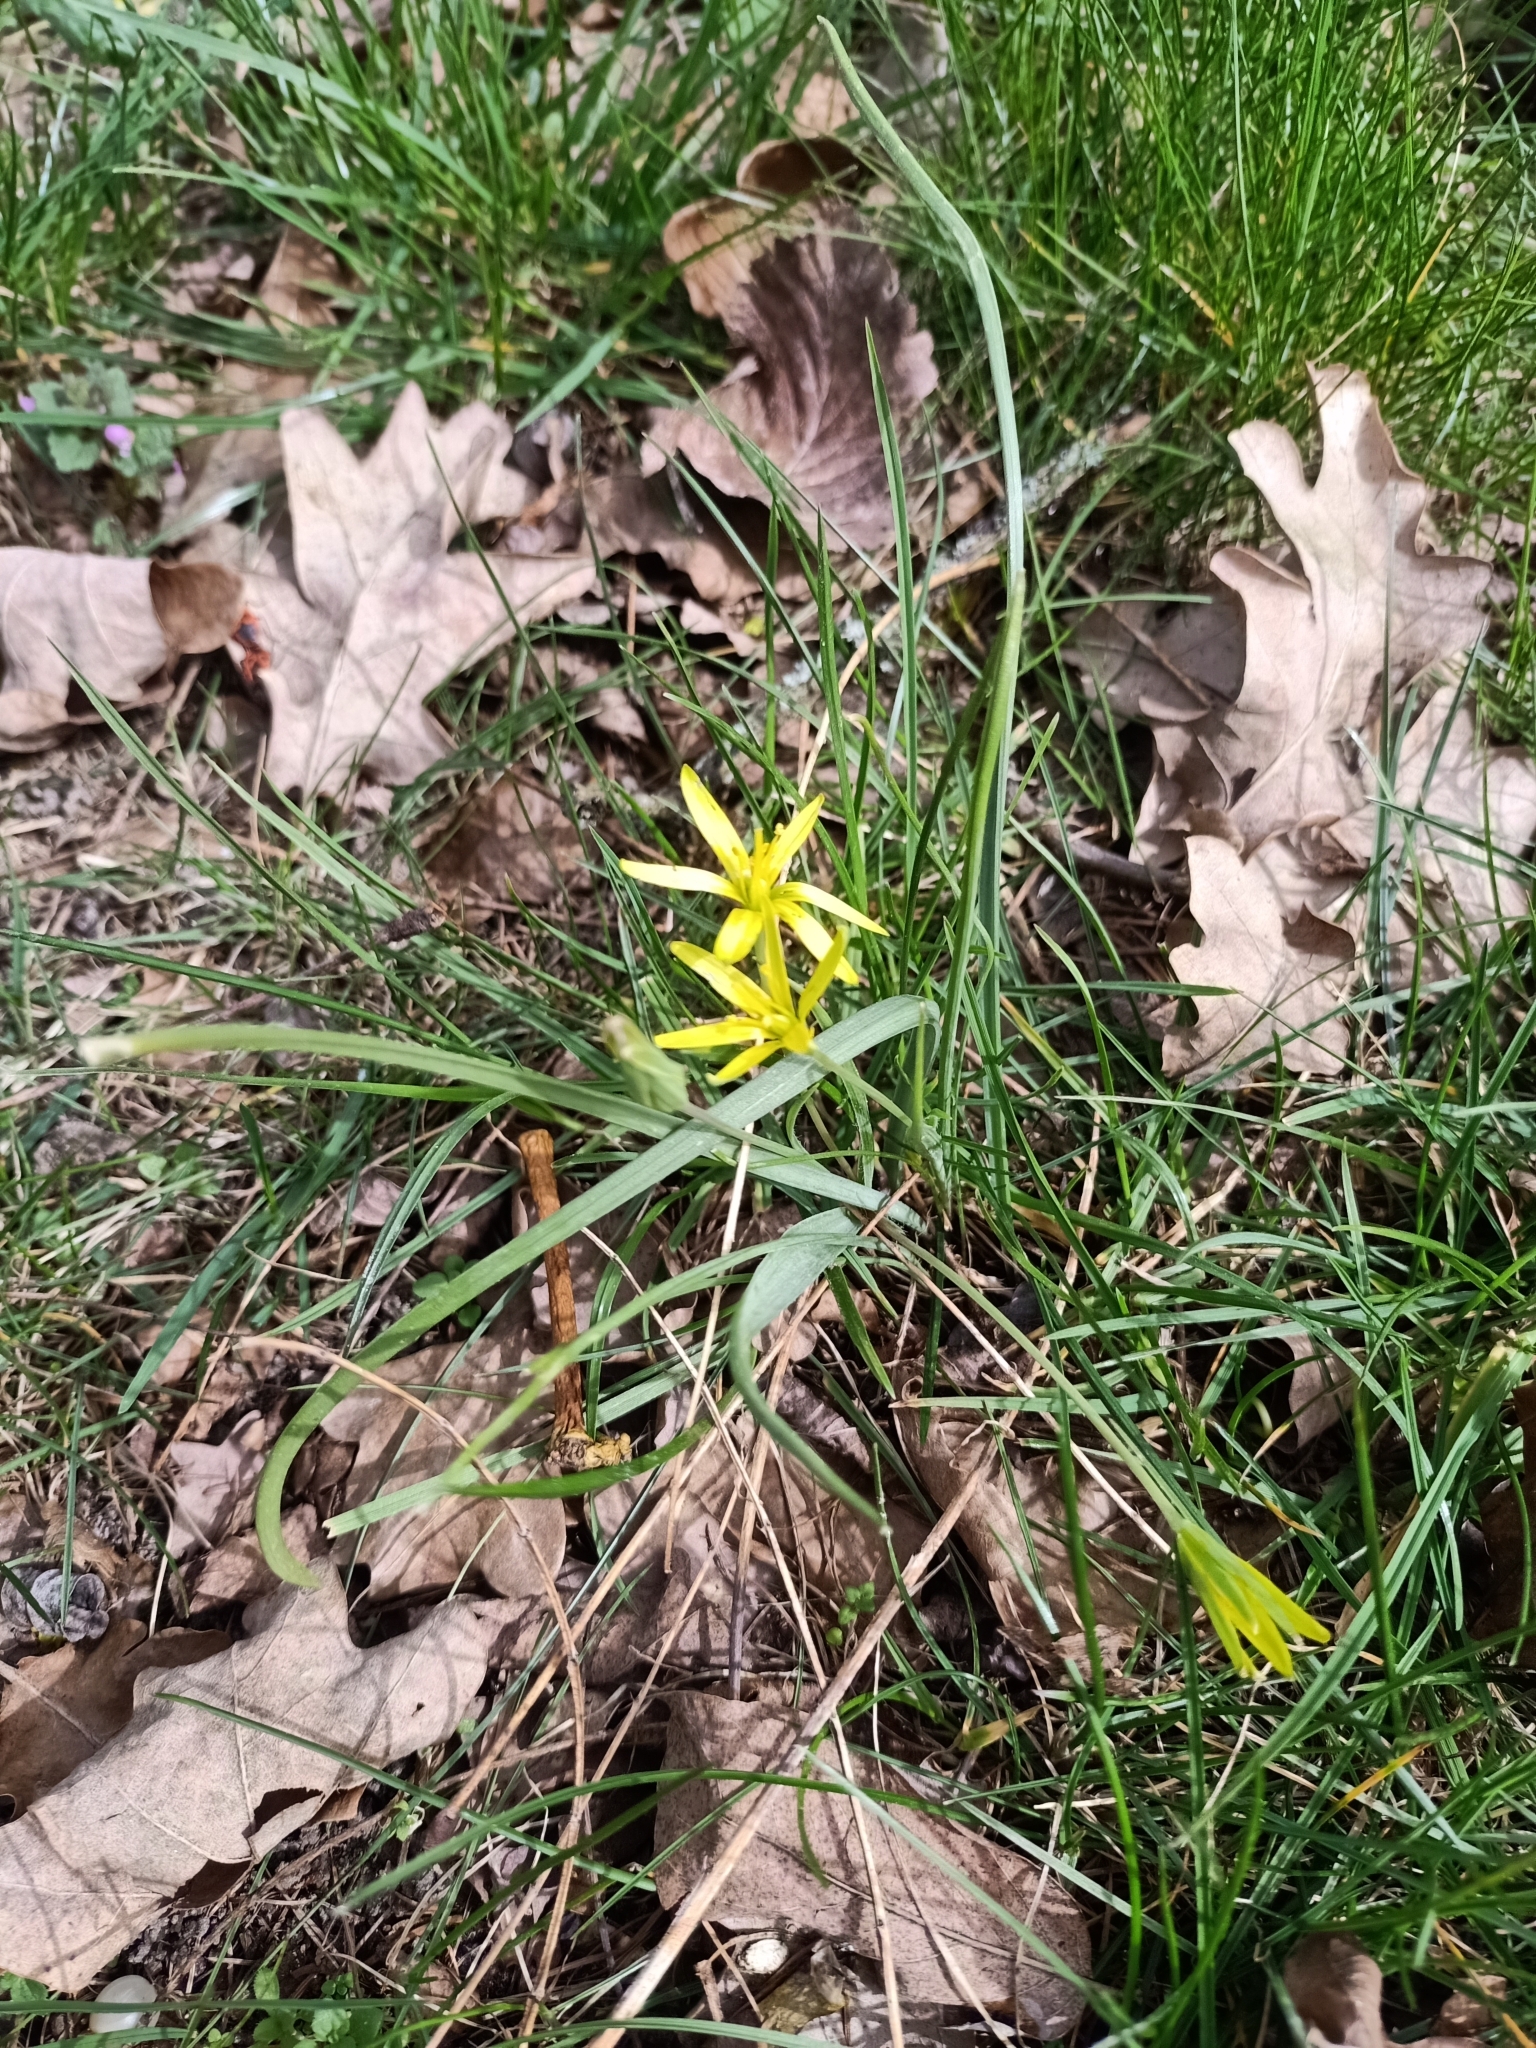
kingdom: Plantae
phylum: Tracheophyta
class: Liliopsida
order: Liliales
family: Liliaceae
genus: Gagea
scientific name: Gagea pratensis
